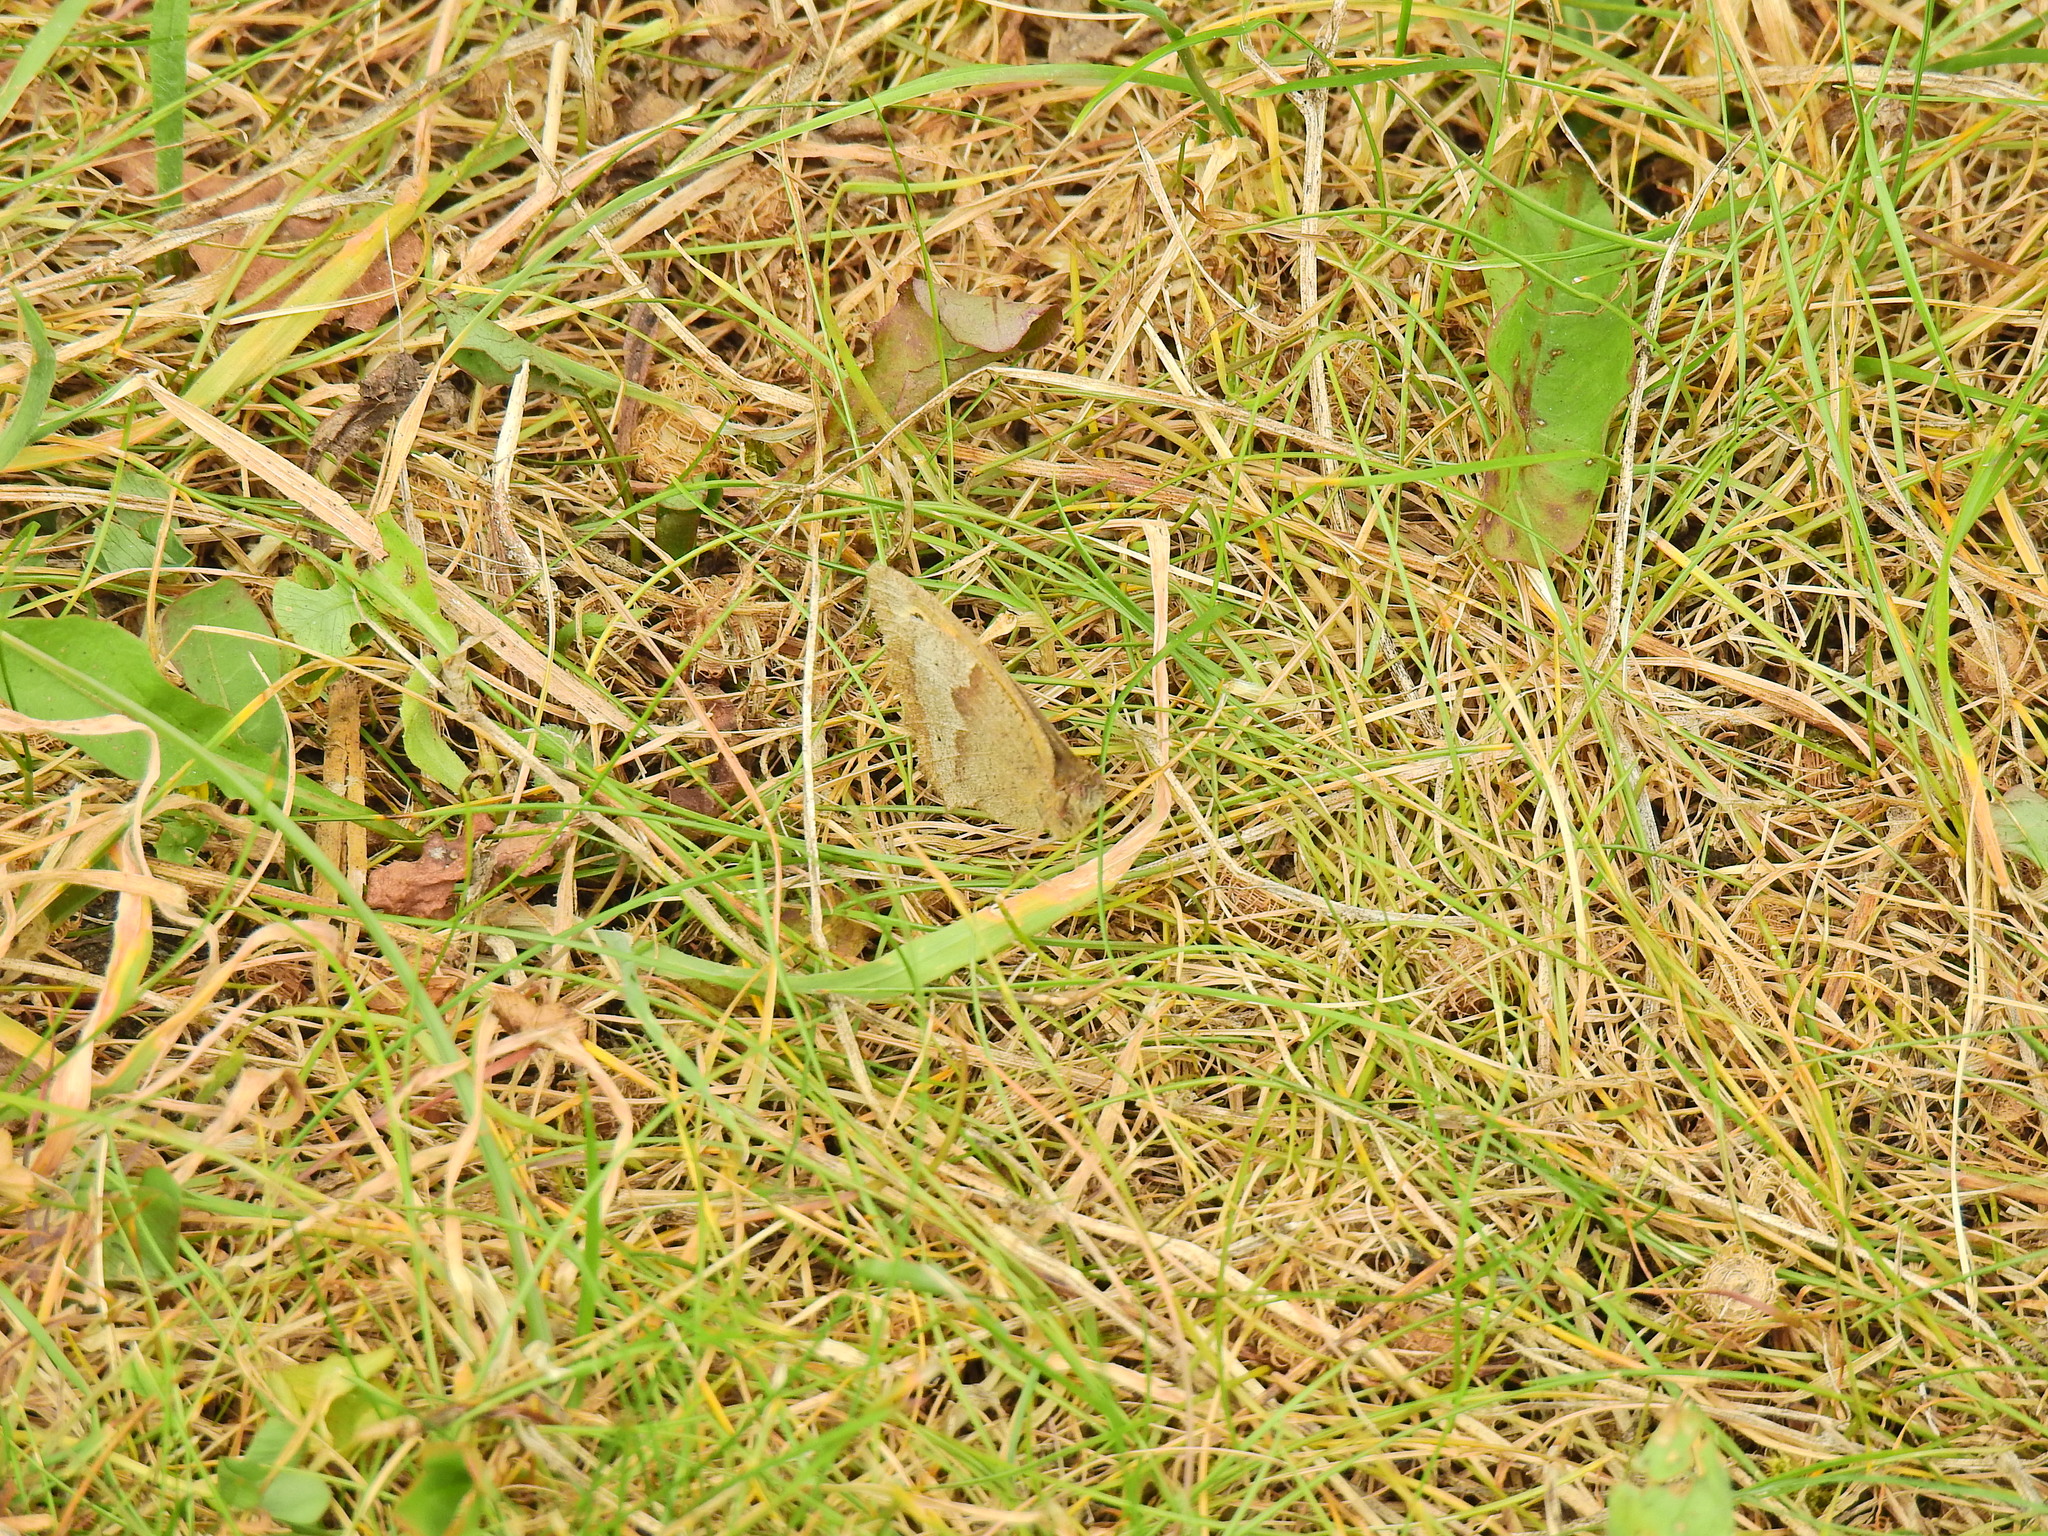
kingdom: Animalia
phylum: Arthropoda
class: Insecta
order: Lepidoptera
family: Nymphalidae
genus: Maniola
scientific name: Maniola jurtina
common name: Meadow brown
